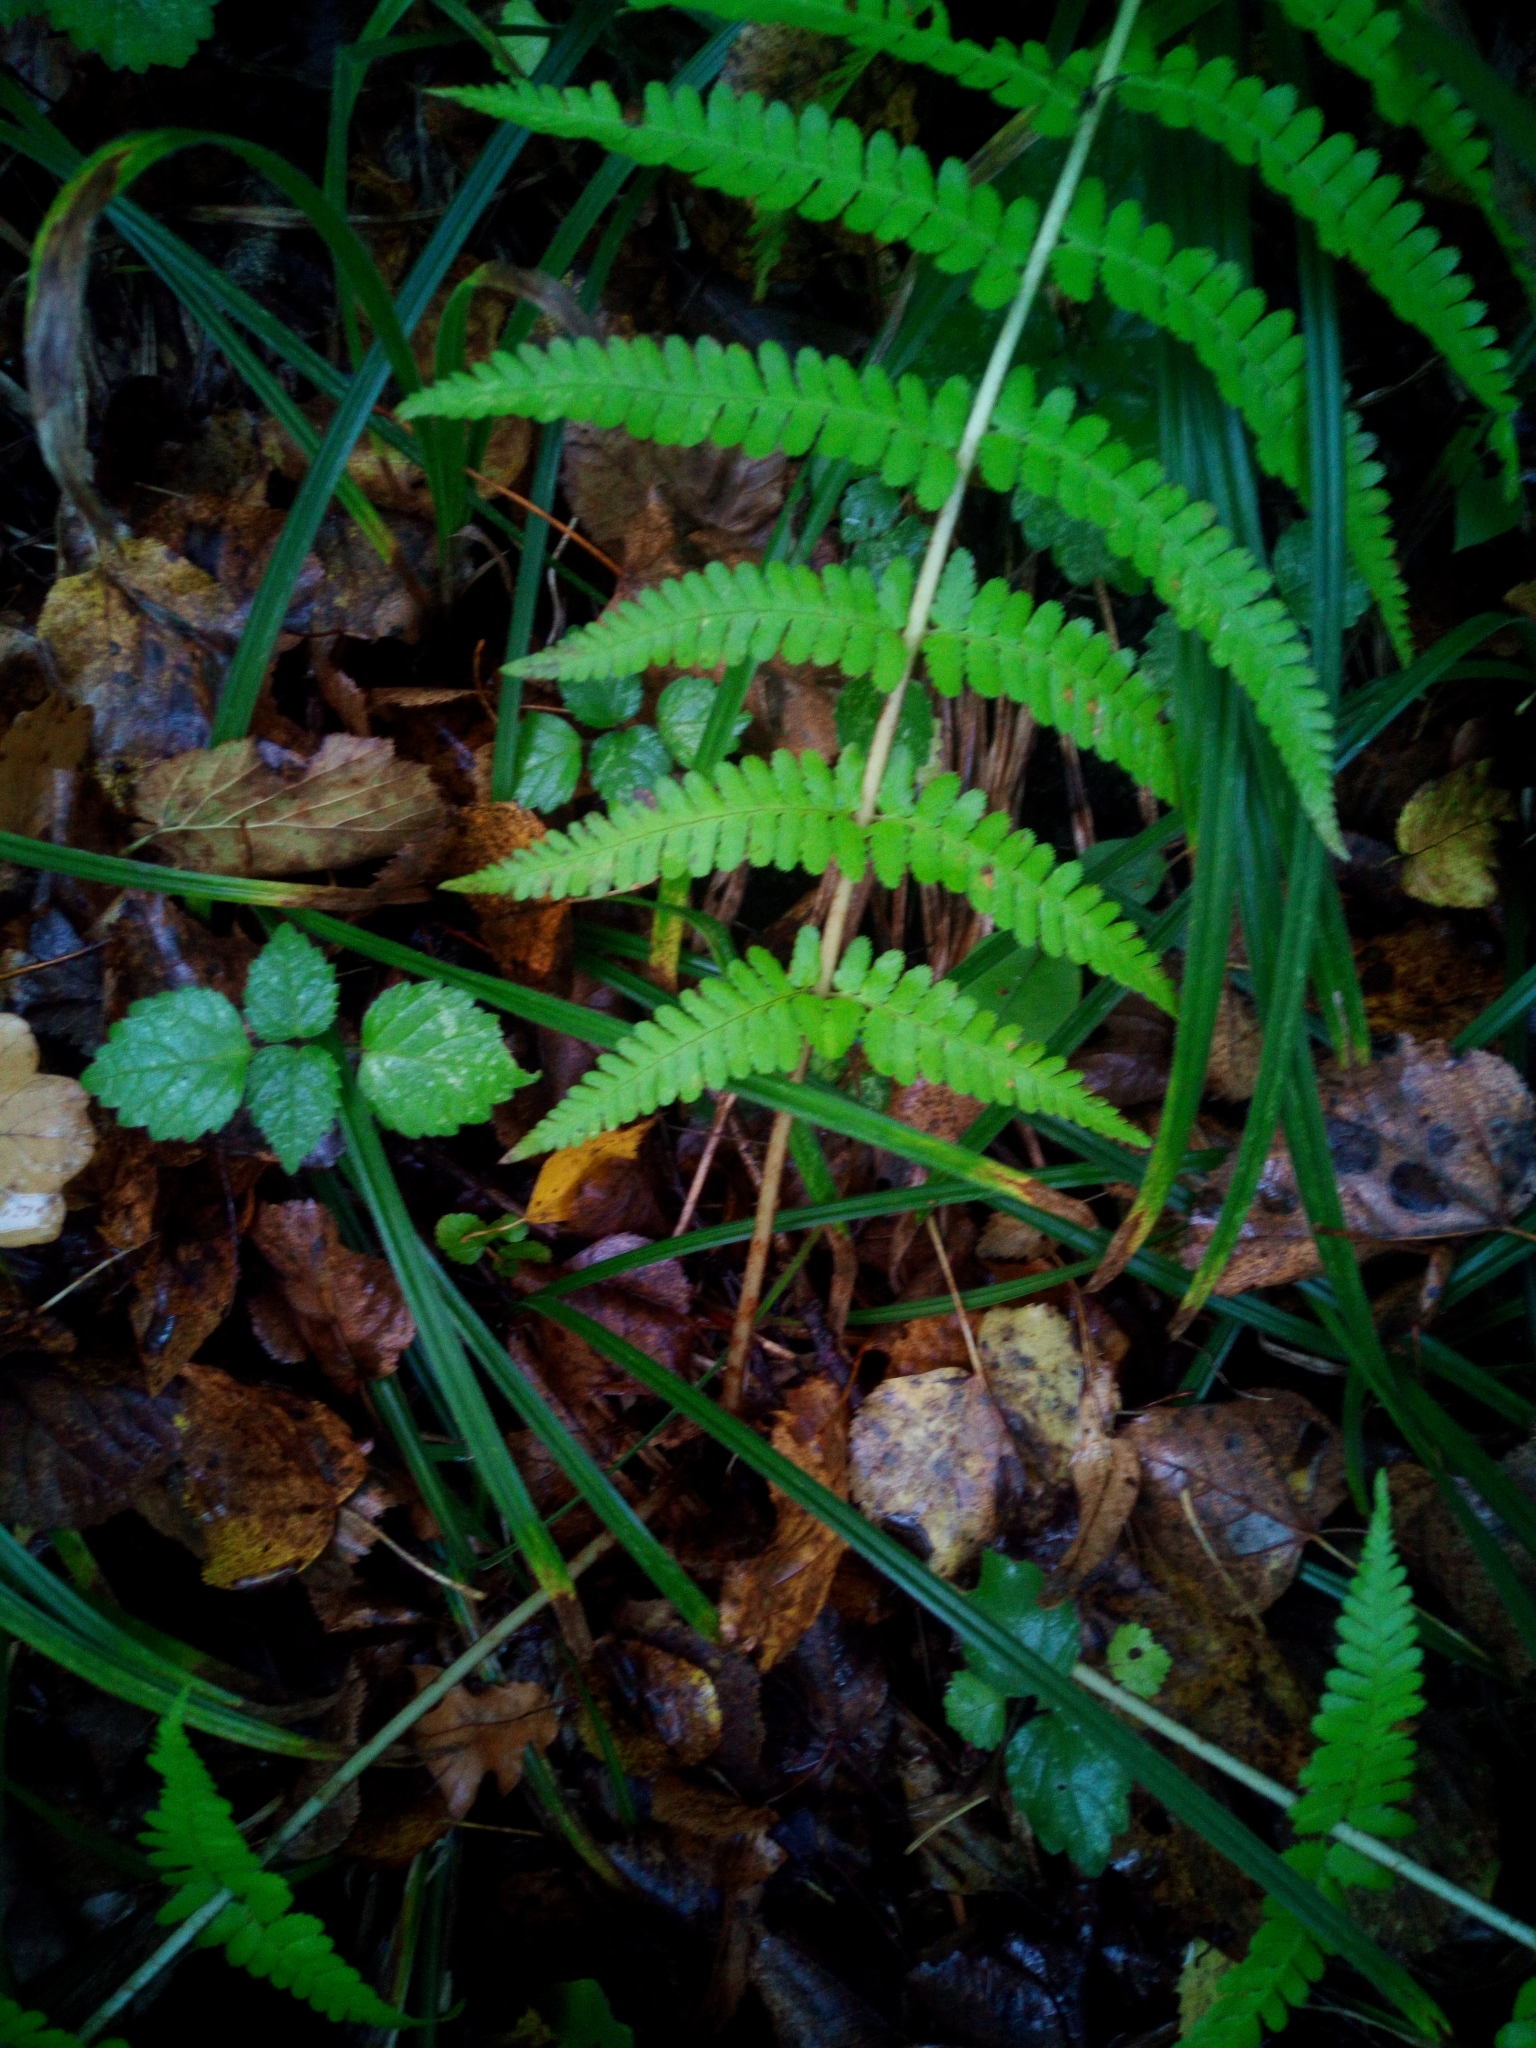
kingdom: Plantae
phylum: Tracheophyta
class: Polypodiopsida
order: Polypodiales
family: Dryopteridaceae
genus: Dryopteris
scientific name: Dryopteris filix-mas
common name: Male fern
